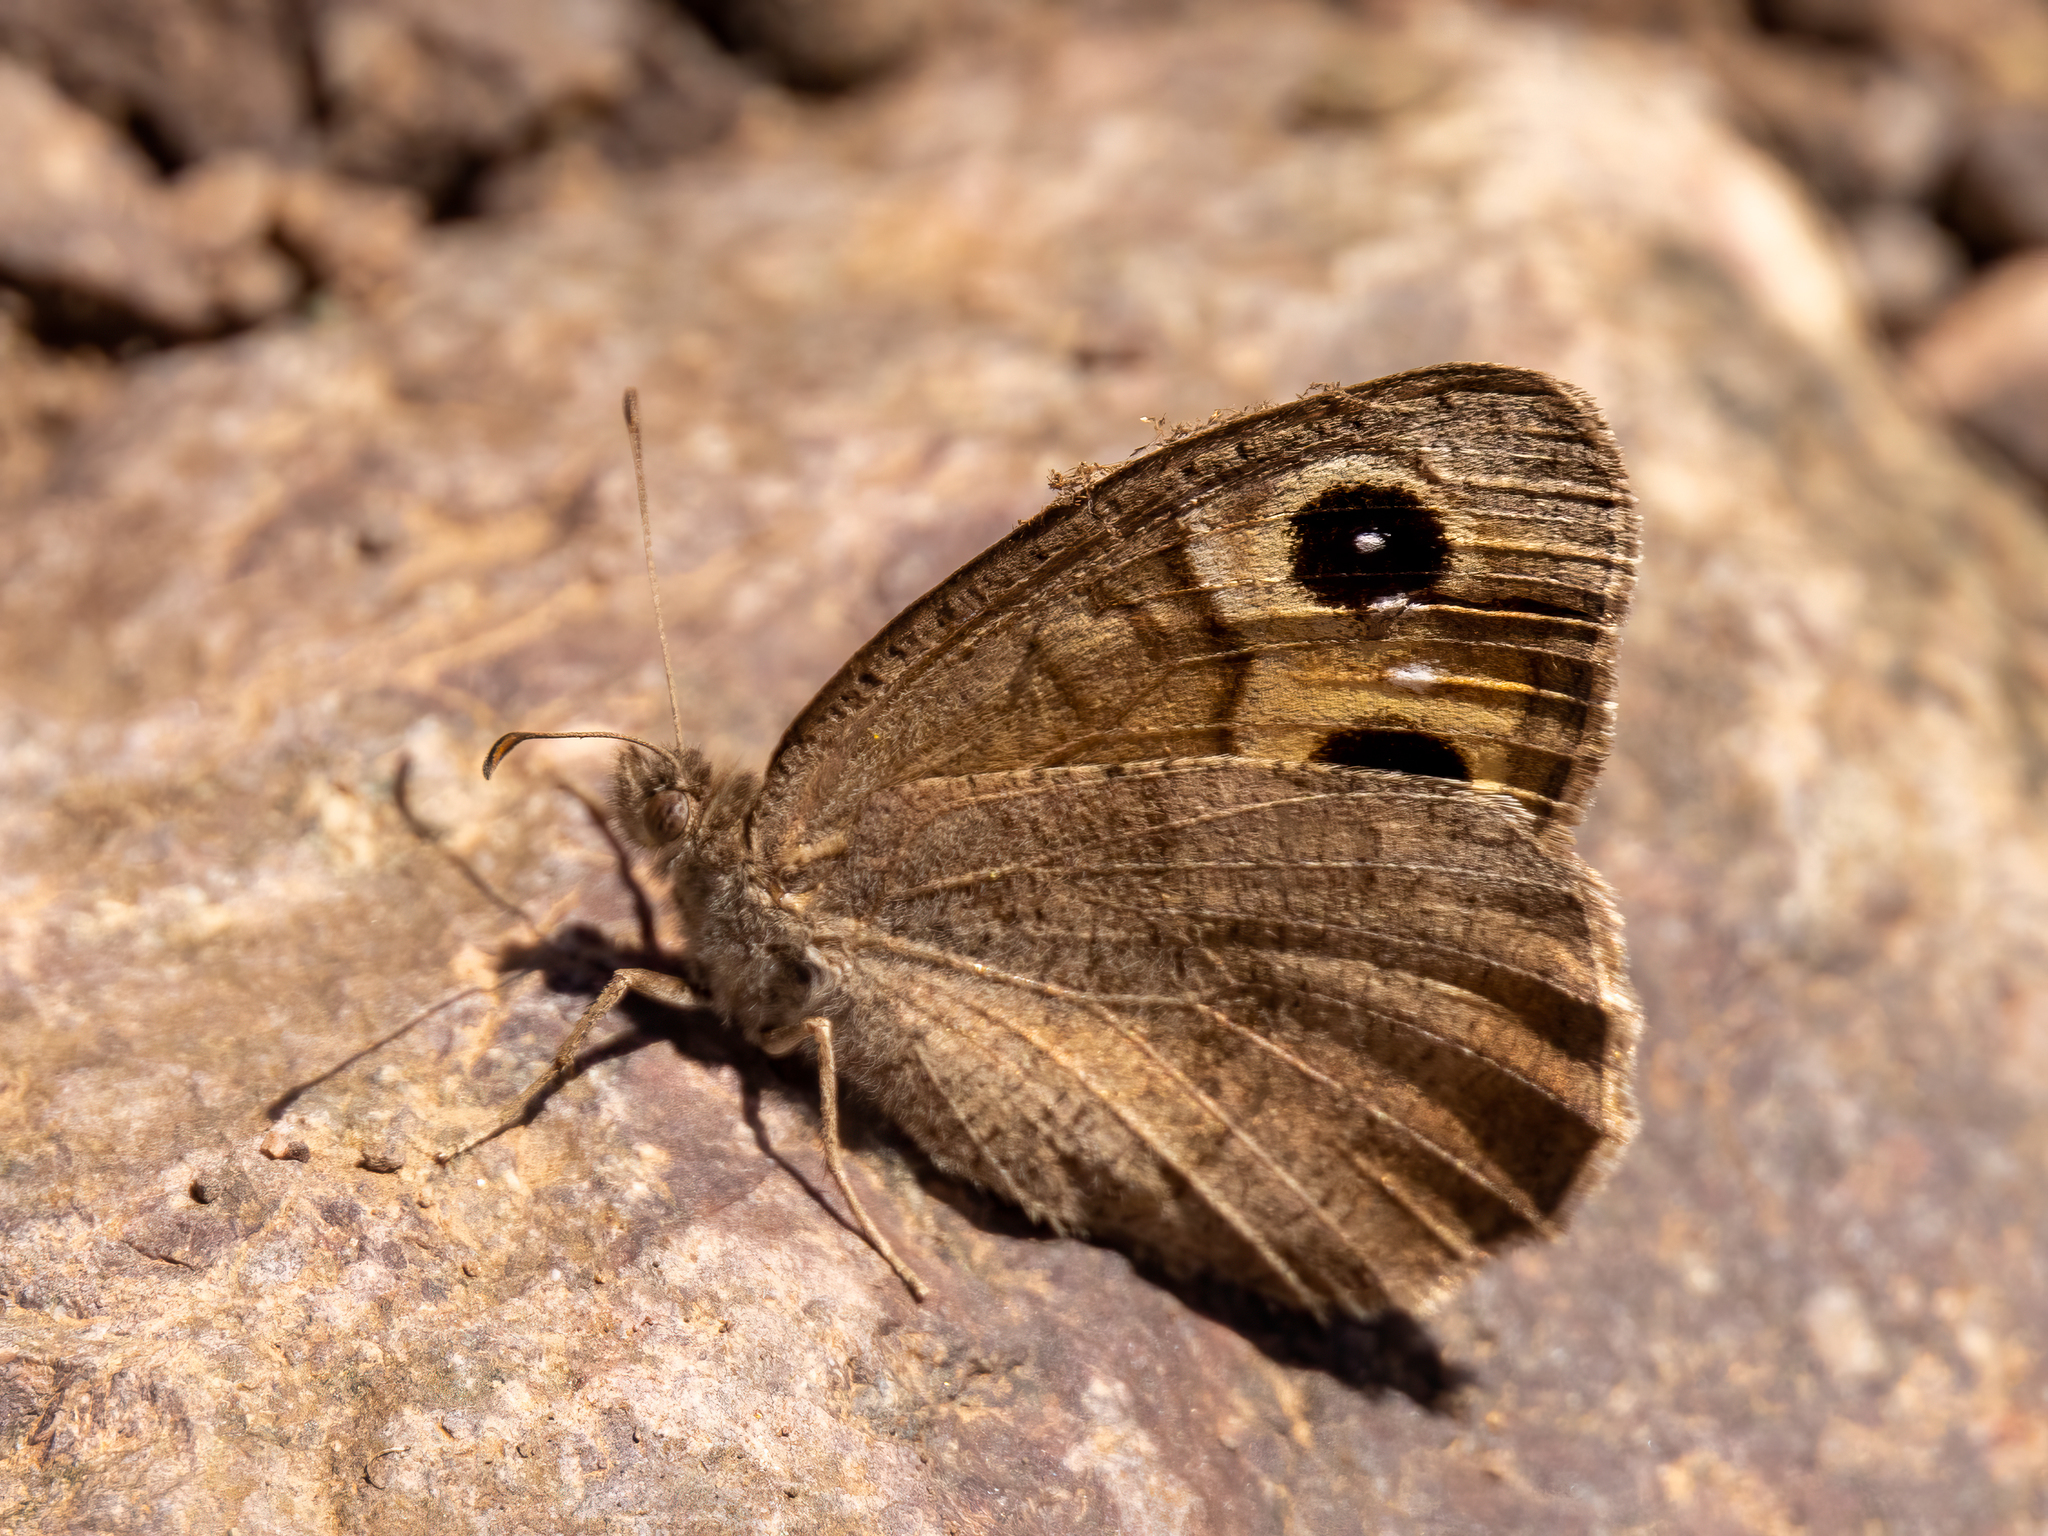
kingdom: Animalia
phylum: Arthropoda
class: Insecta
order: Lepidoptera
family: Nymphalidae
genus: Hipparchia
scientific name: Hipparchia hansii
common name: Austaut's grayling
